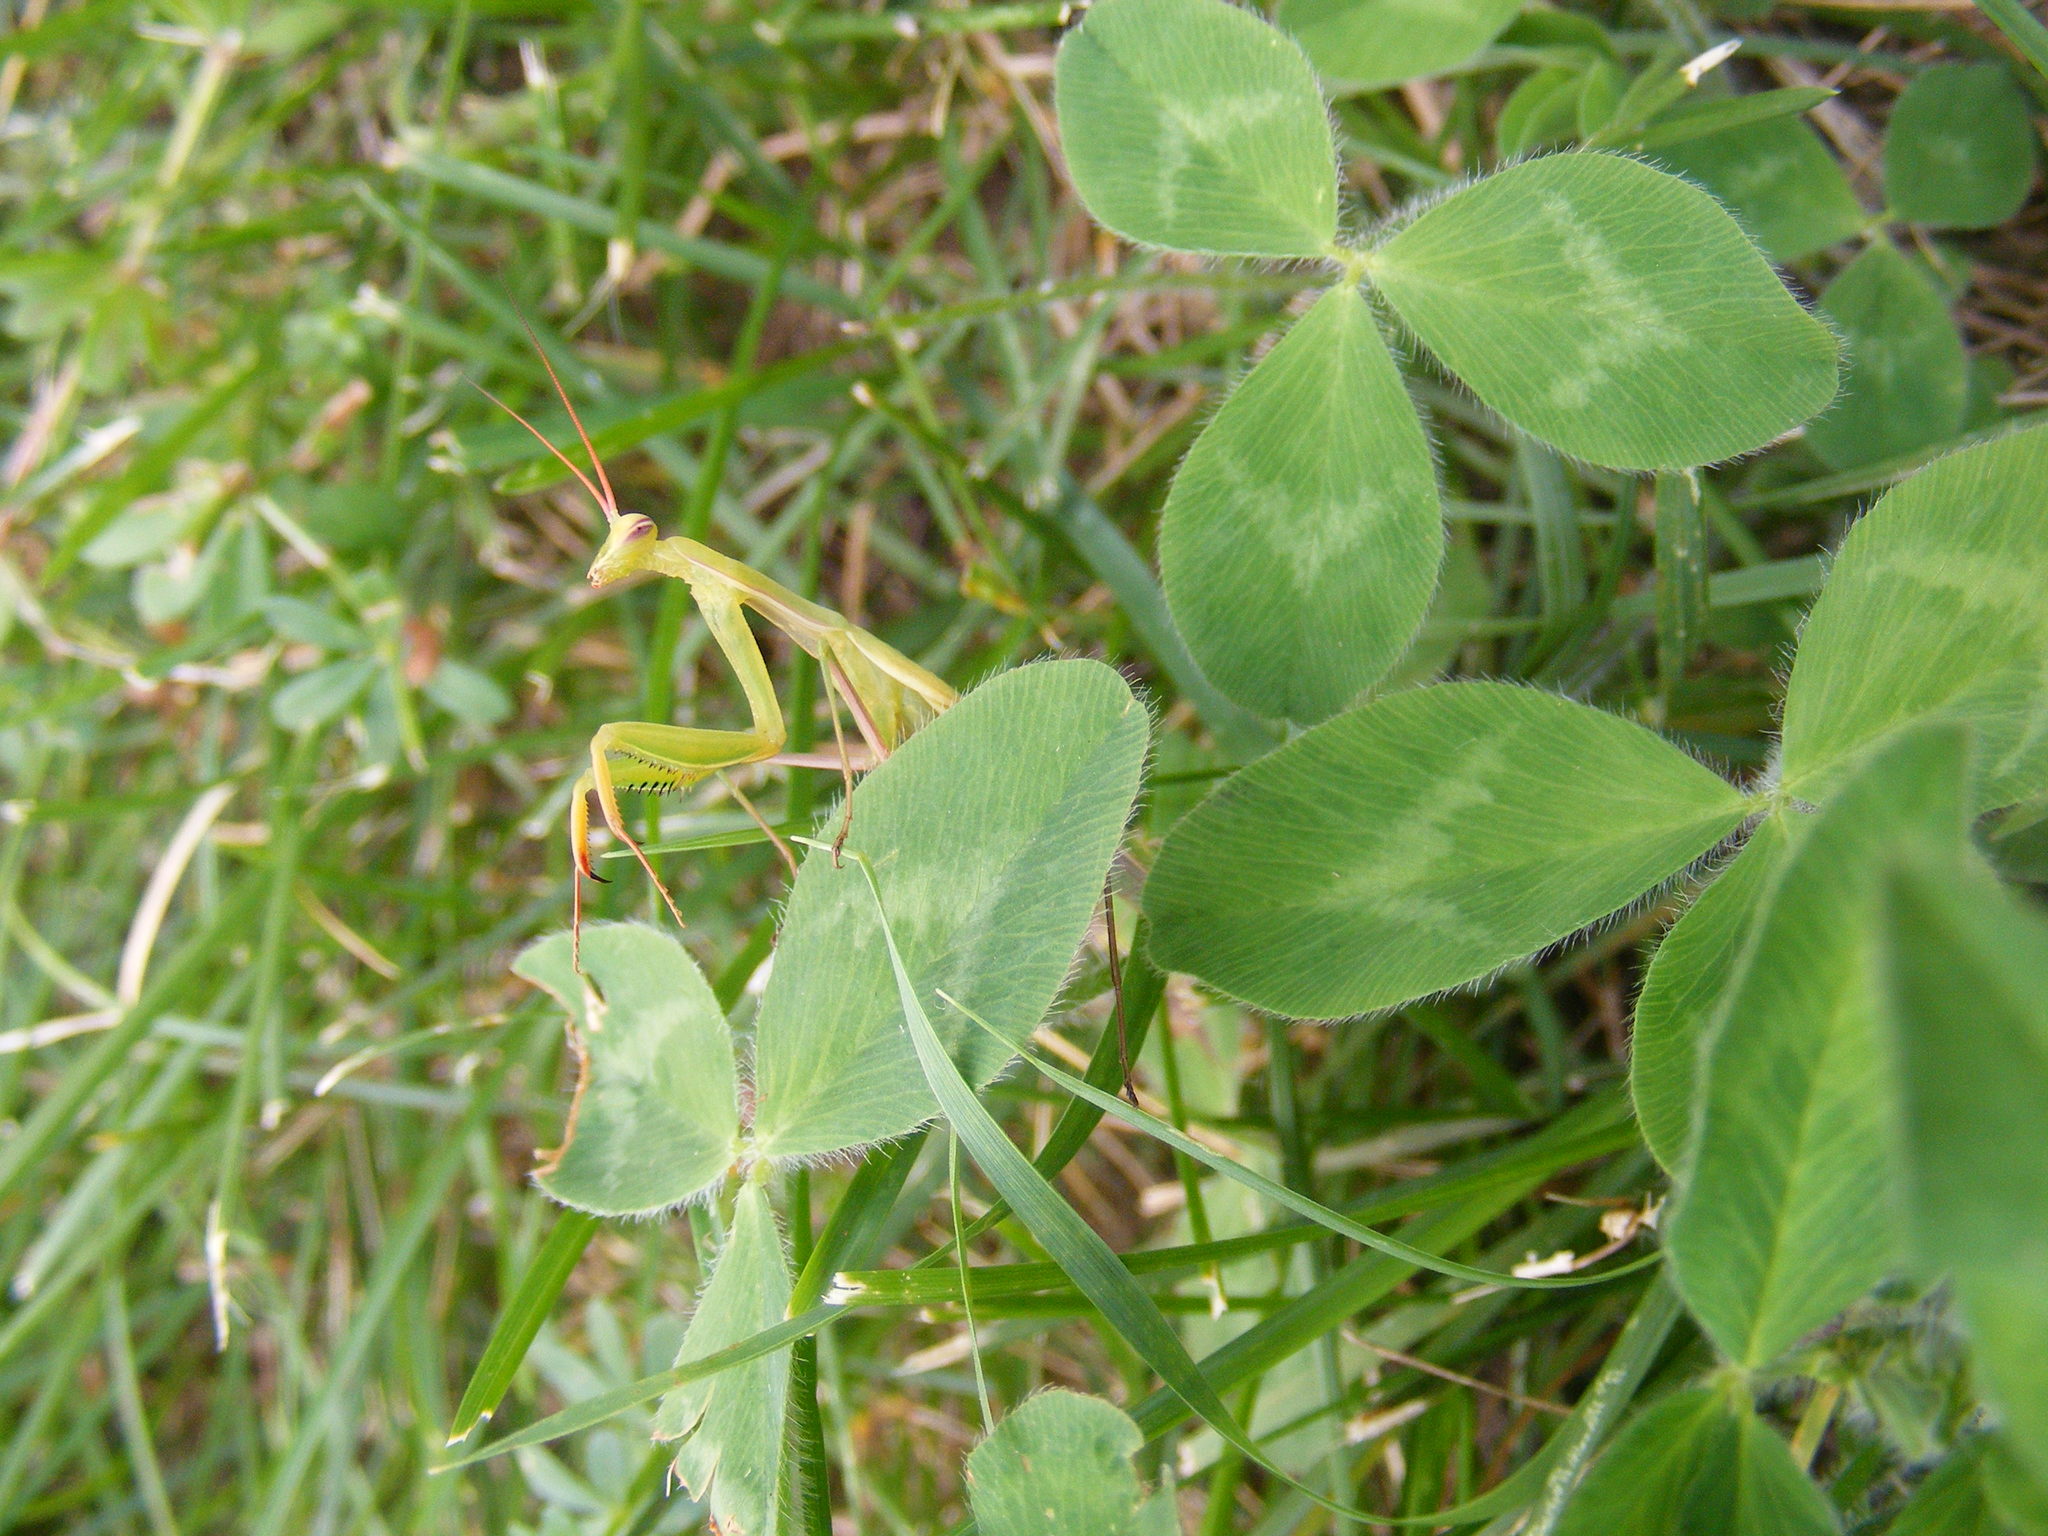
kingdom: Animalia
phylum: Arthropoda
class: Insecta
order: Mantodea
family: Mantidae
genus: Mantis
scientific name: Mantis religiosa
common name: Praying mantis
